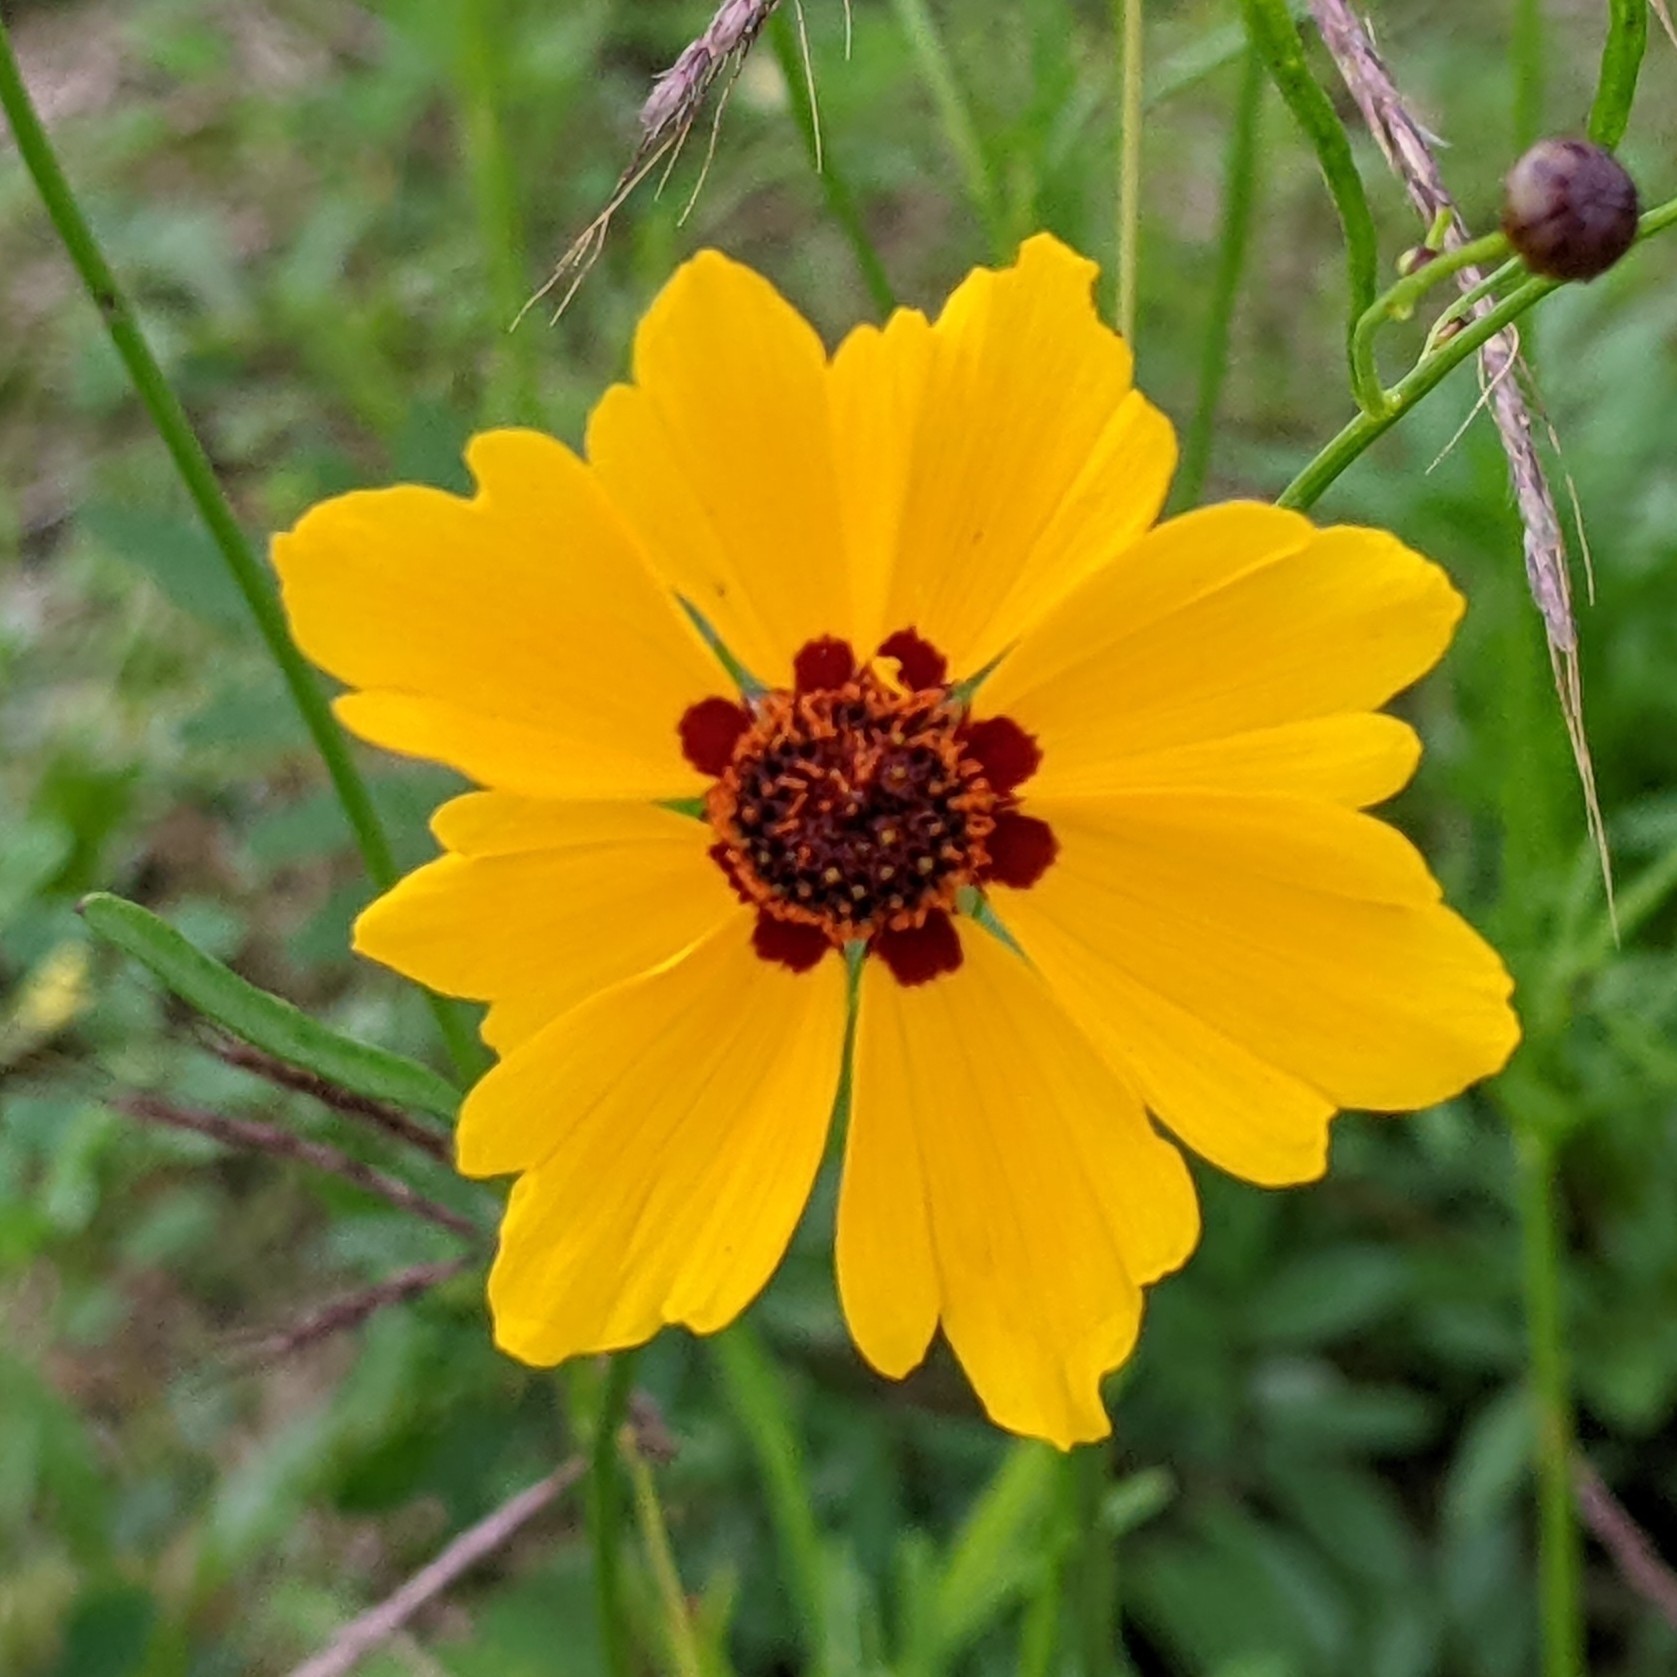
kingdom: Plantae
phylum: Tracheophyta
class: Magnoliopsida
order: Asterales
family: Asteraceae
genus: Coreopsis
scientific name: Coreopsis tinctoria
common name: Garden tickseed
